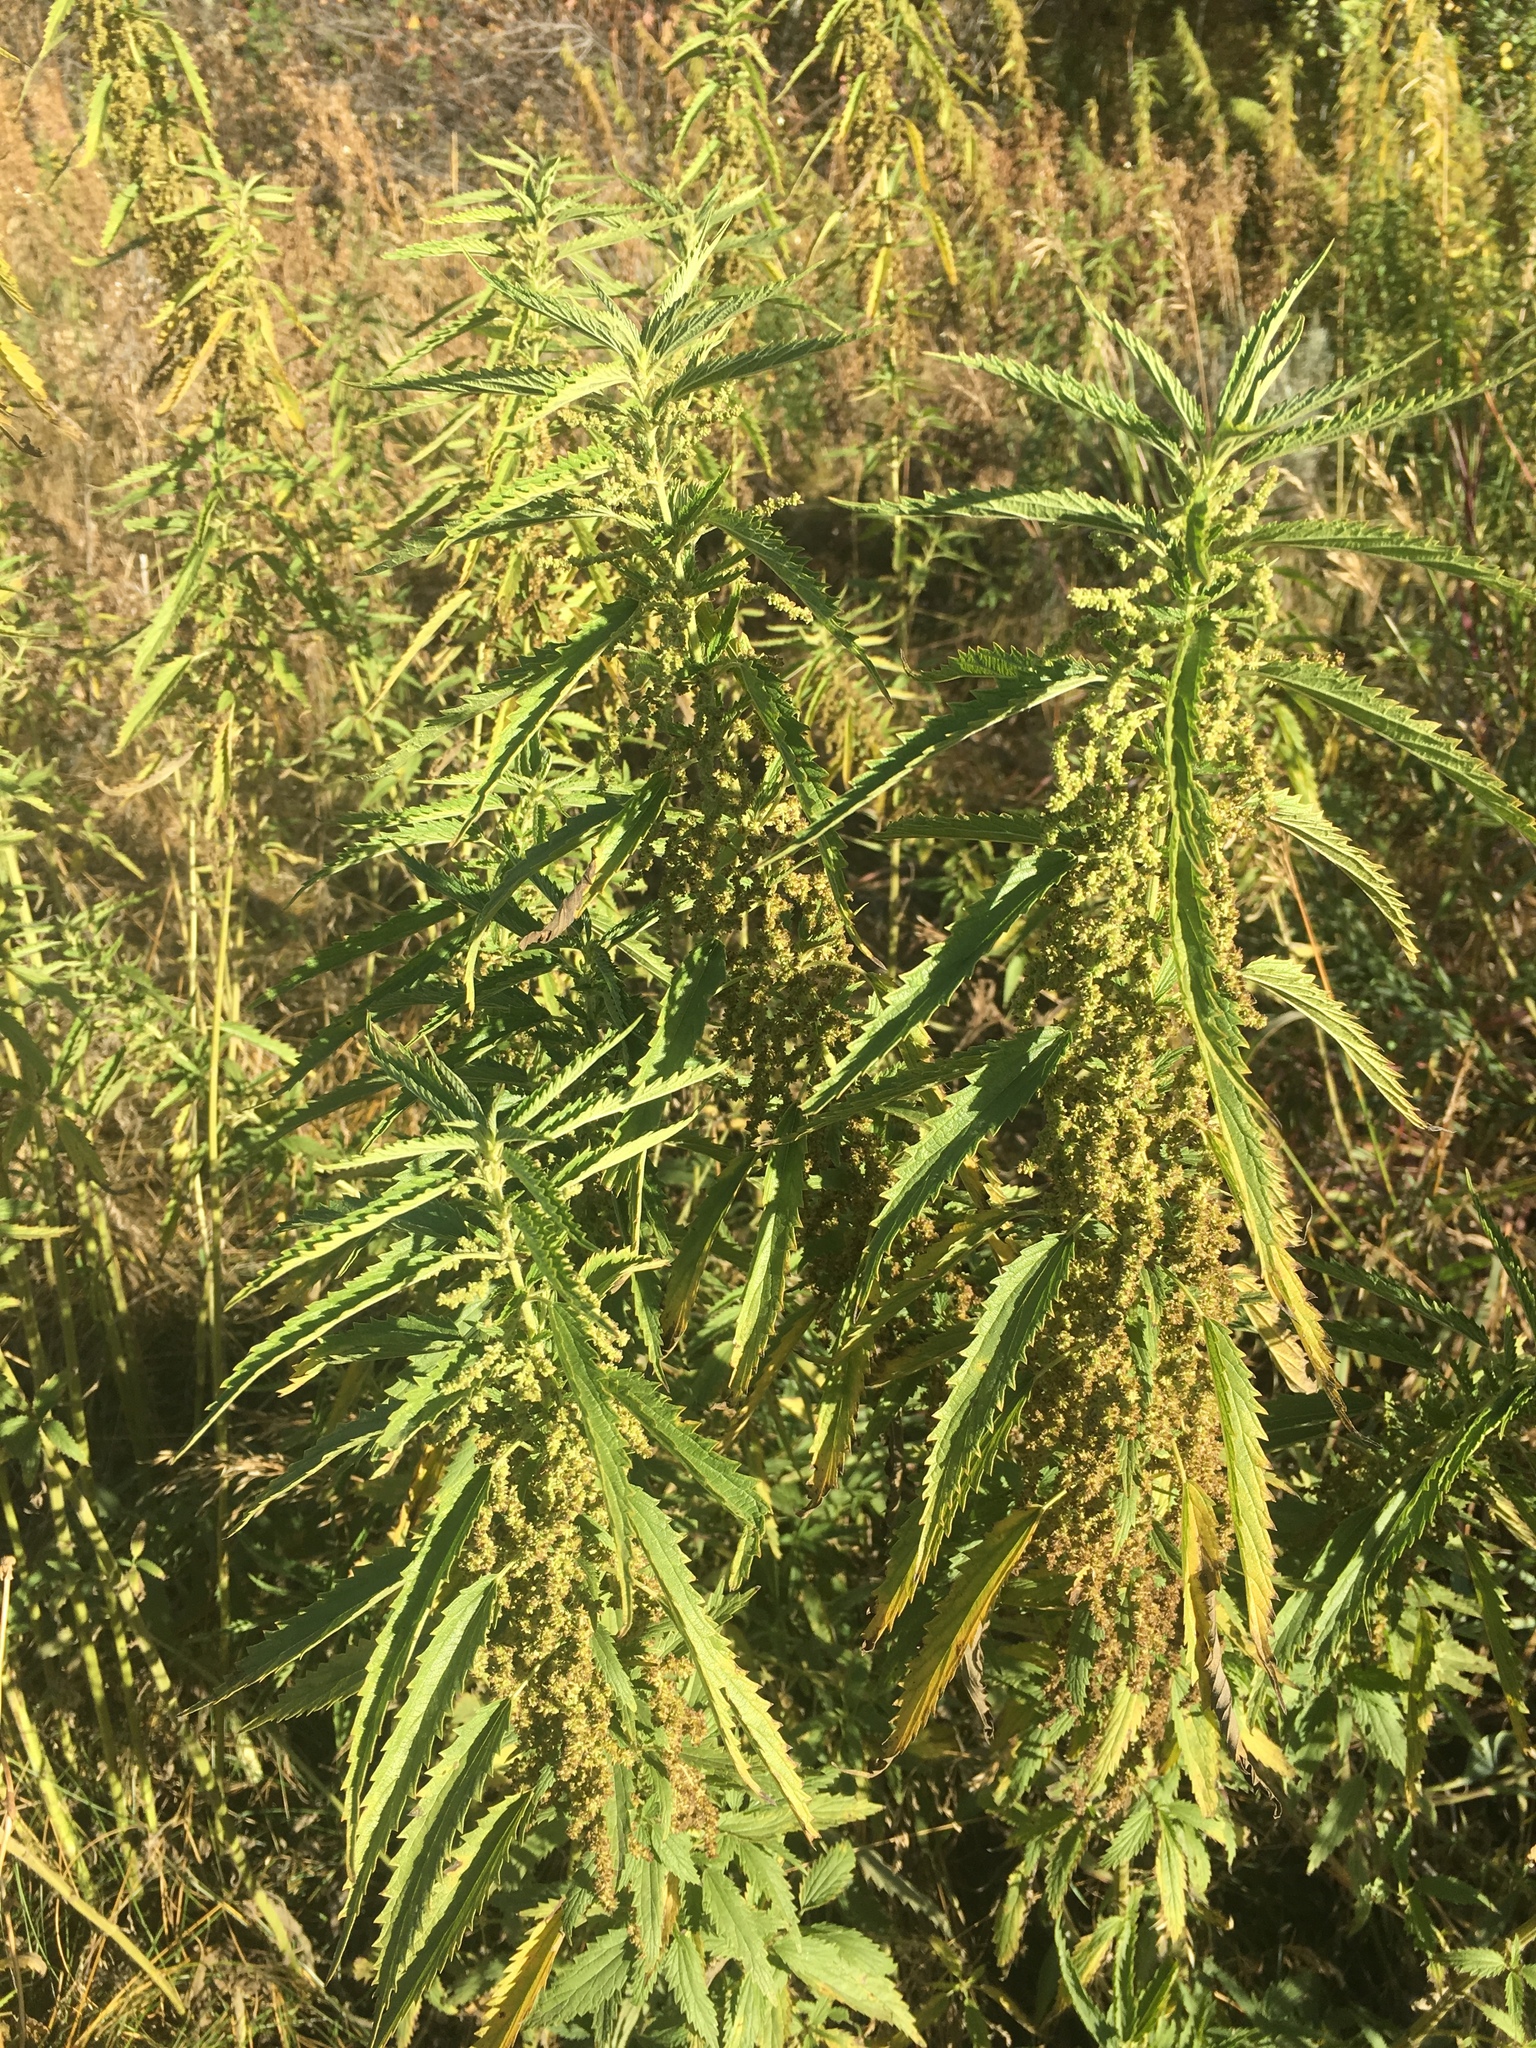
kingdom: Plantae
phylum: Tracheophyta
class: Magnoliopsida
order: Rosales
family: Urticaceae
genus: Urtica
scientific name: Urtica dioica
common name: Common nettle
